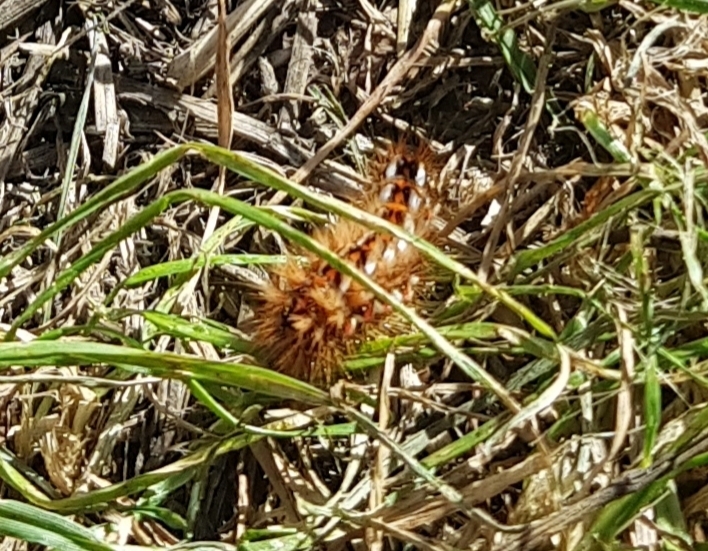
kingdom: Animalia
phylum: Arthropoda
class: Insecta
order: Lepidoptera
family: Noctuidae
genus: Acronicta
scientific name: Acronicta rumicis
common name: Knot grass
